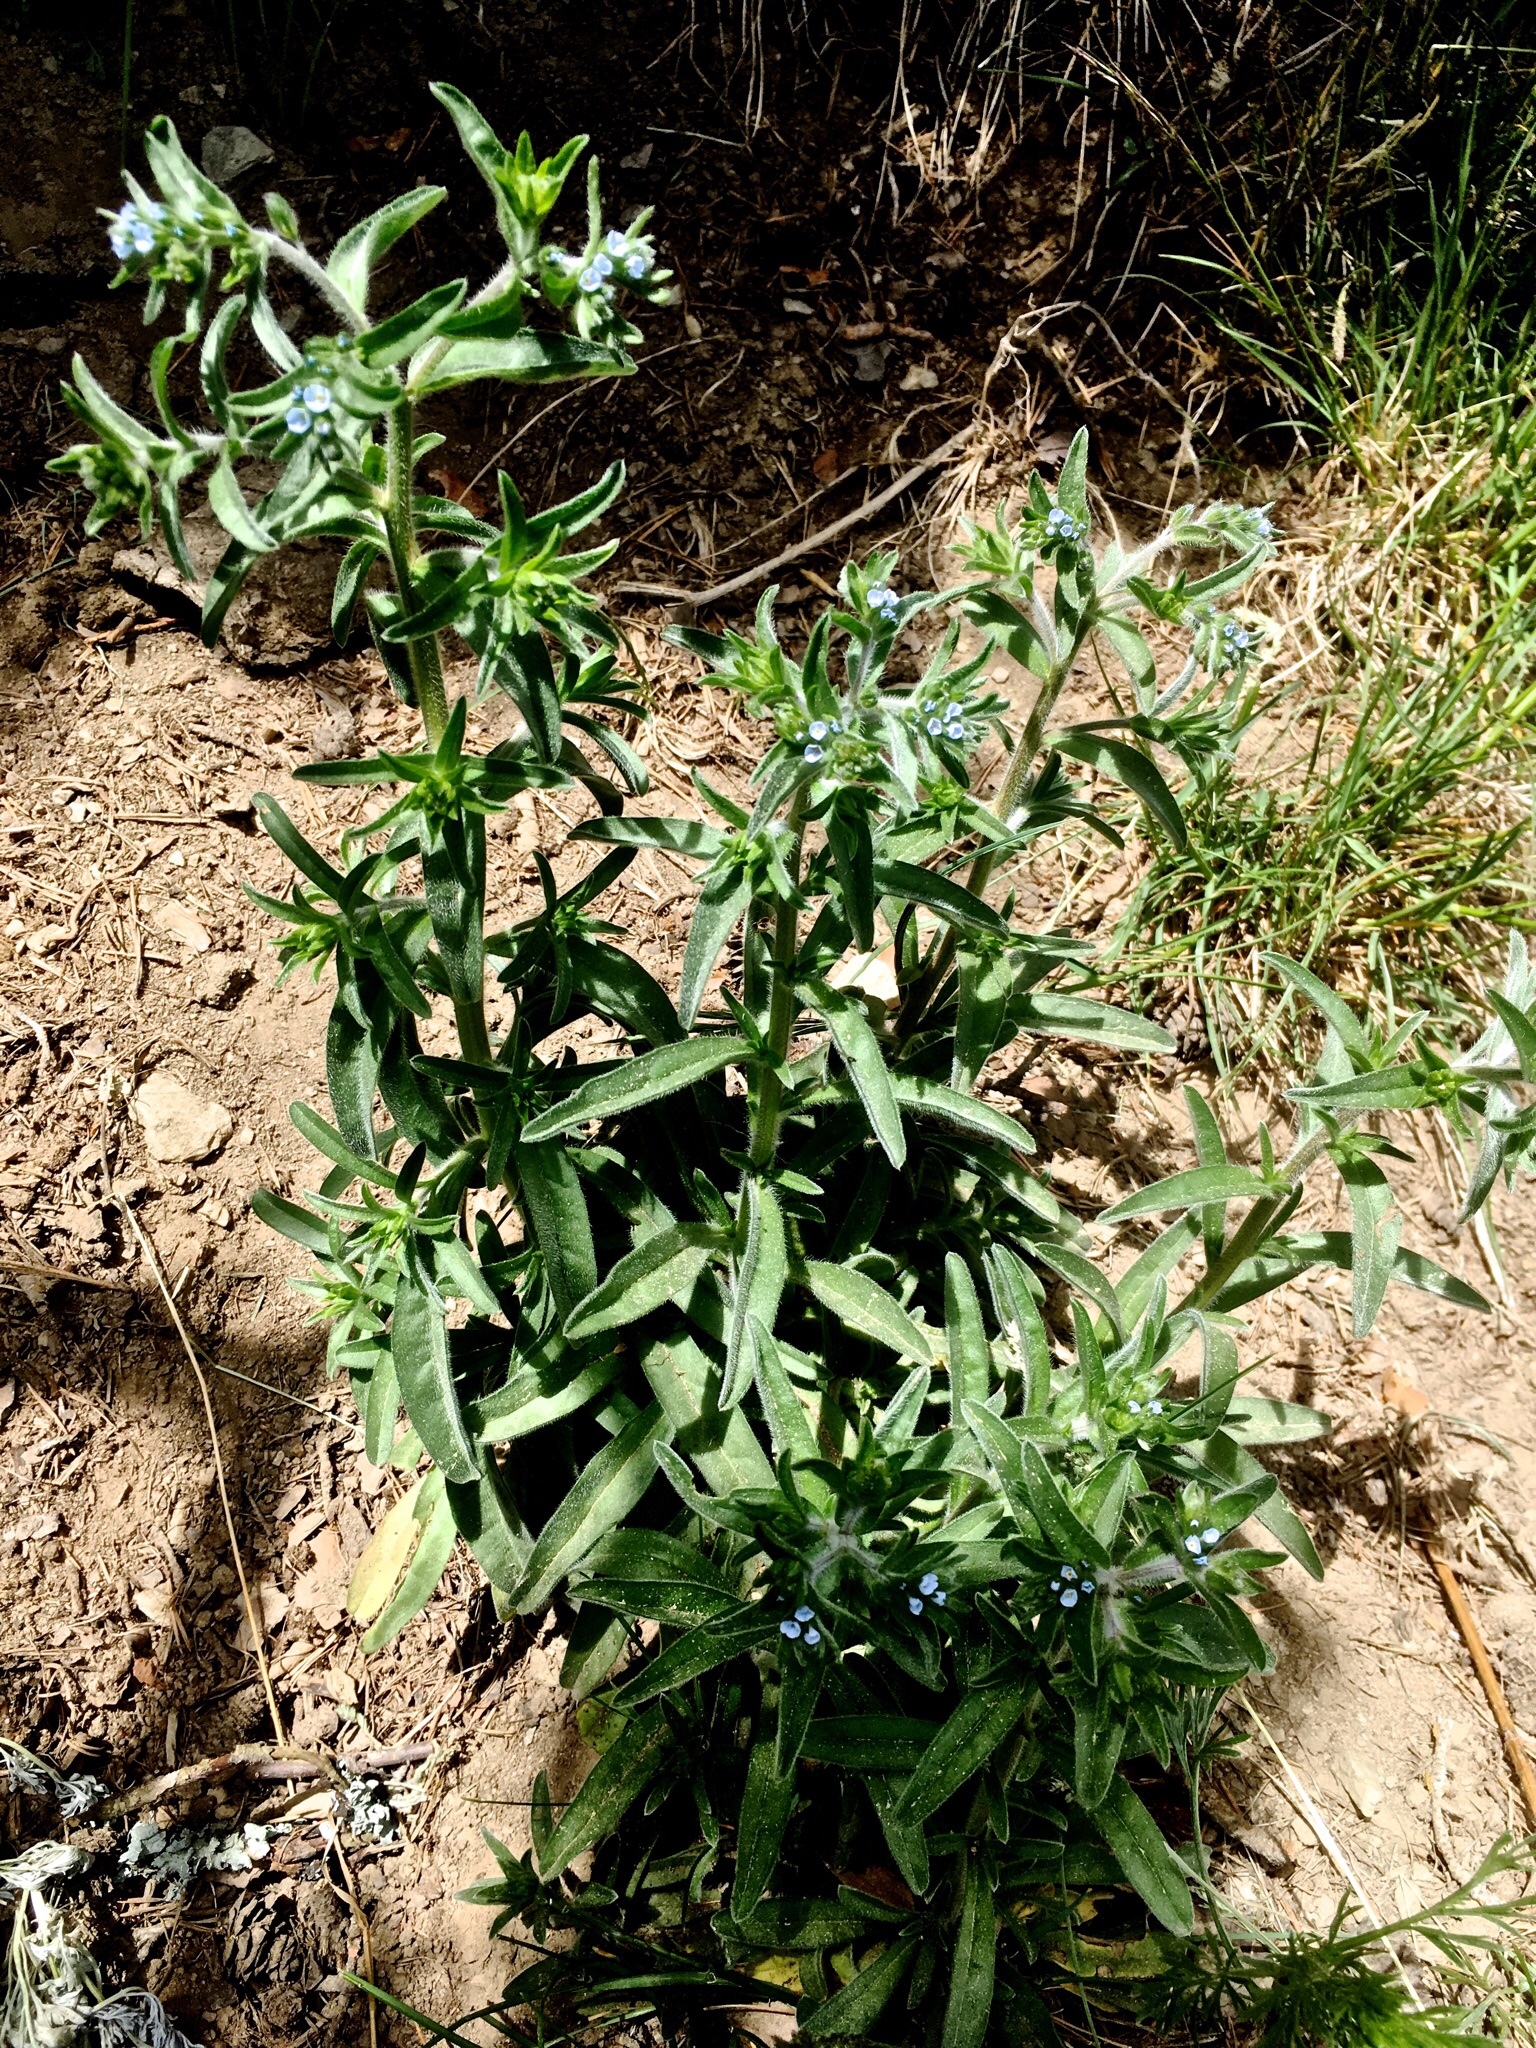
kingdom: Plantae
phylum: Tracheophyta
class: Magnoliopsida
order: Boraginales
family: Boraginaceae
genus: Lappula
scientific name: Lappula squarrosa
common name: European stickseed
